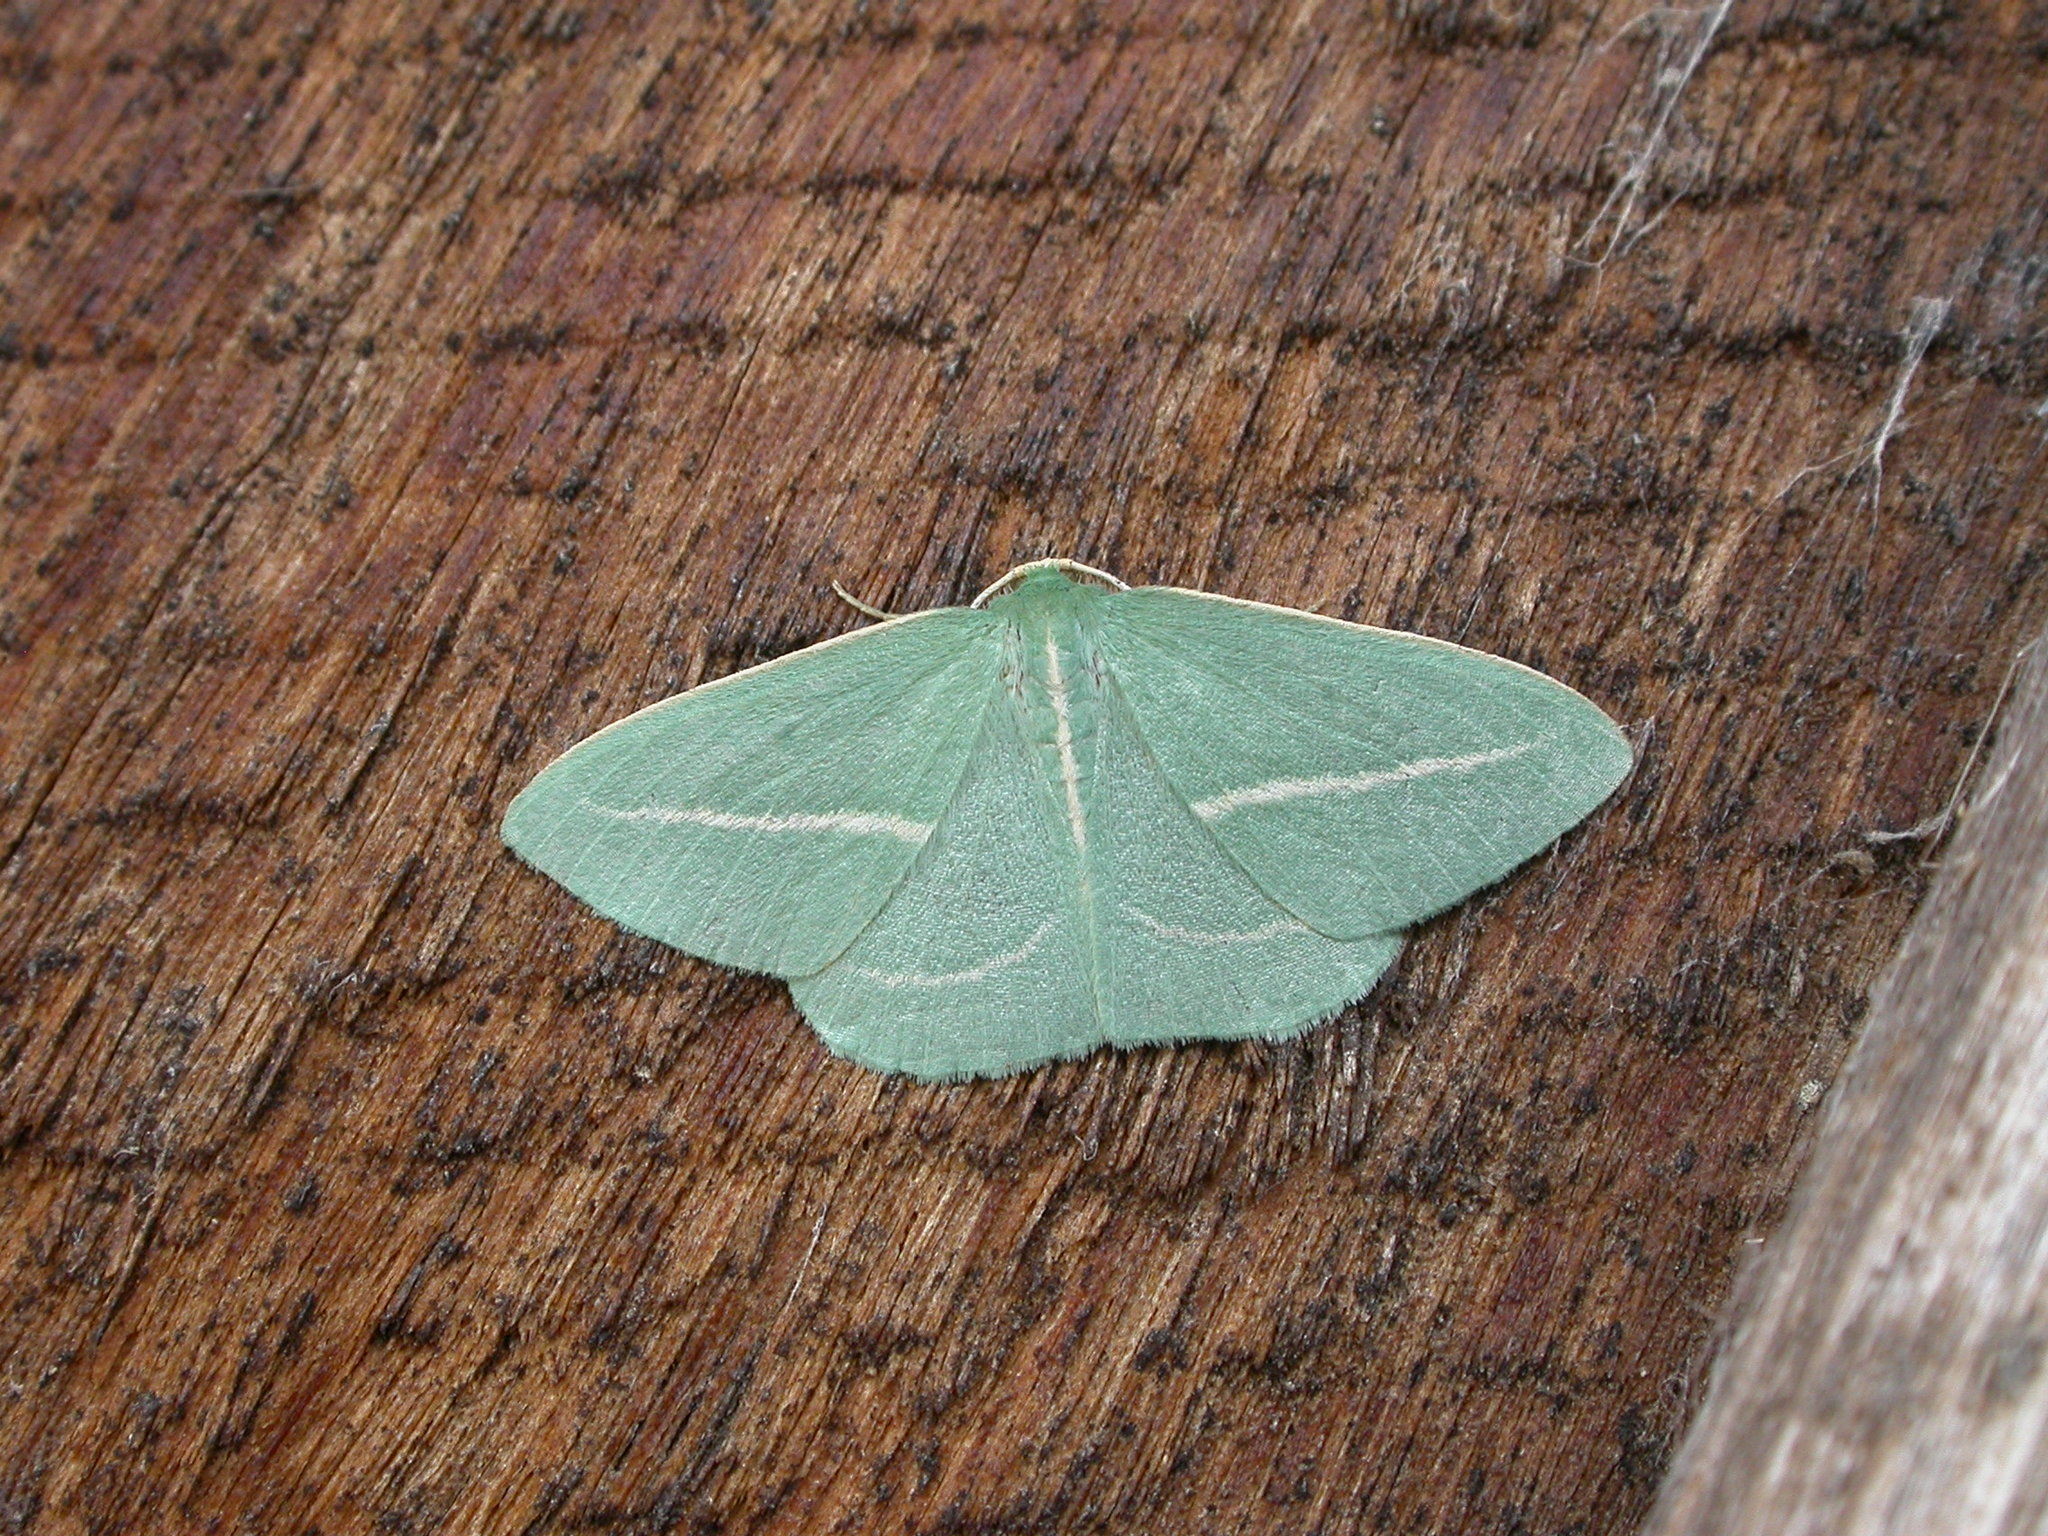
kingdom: Animalia
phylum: Arthropoda
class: Insecta
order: Lepidoptera
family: Geometridae
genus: Chlorocoma
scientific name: Chlorocoma stereota
